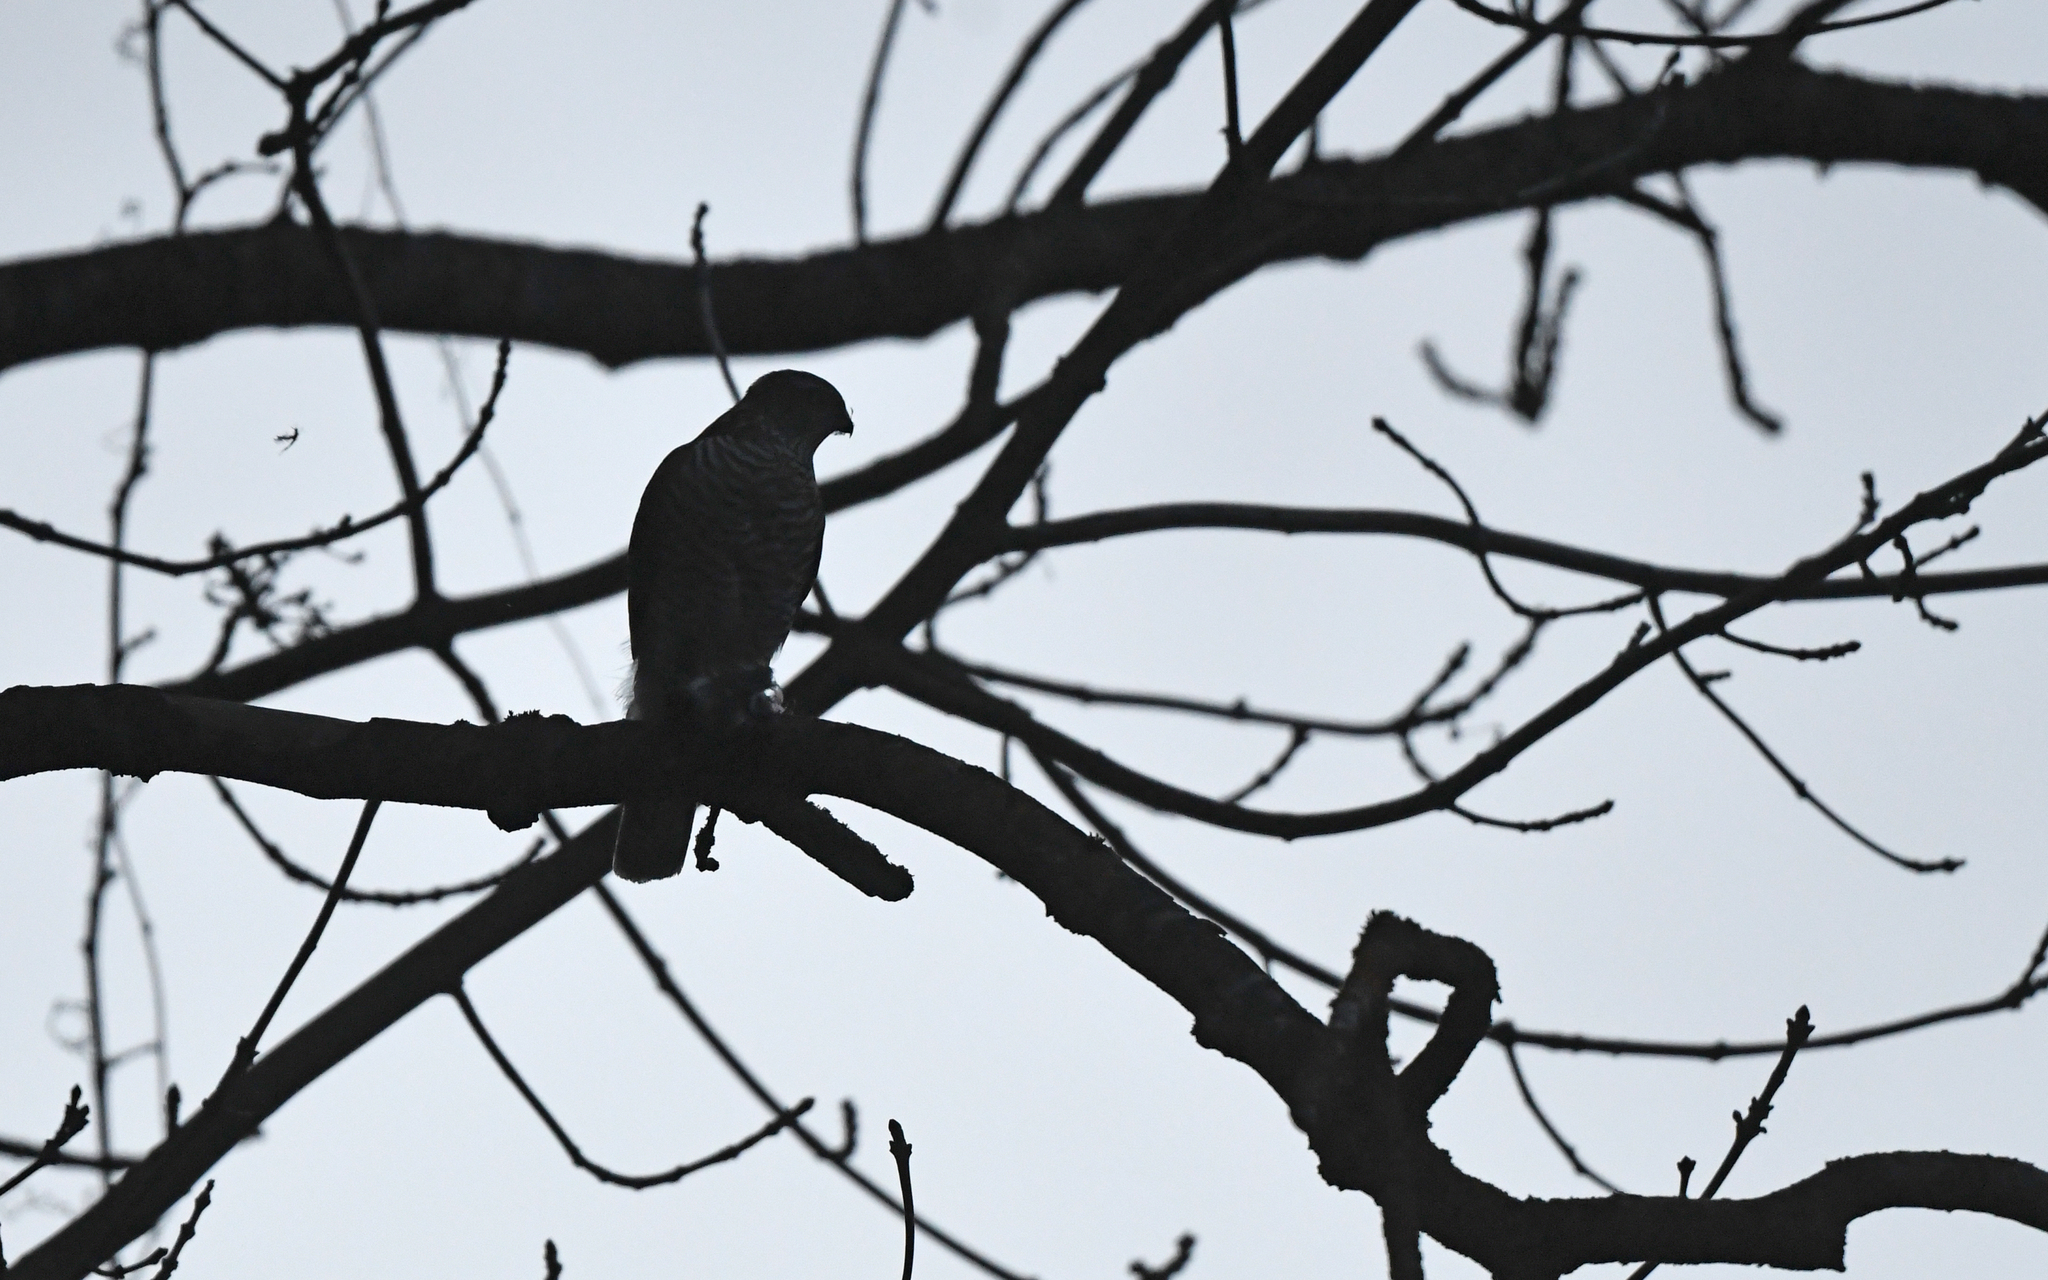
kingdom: Animalia
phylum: Chordata
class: Aves
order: Accipitriformes
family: Accipitridae
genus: Accipiter
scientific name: Accipiter nisus
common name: Eurasian sparrowhawk
